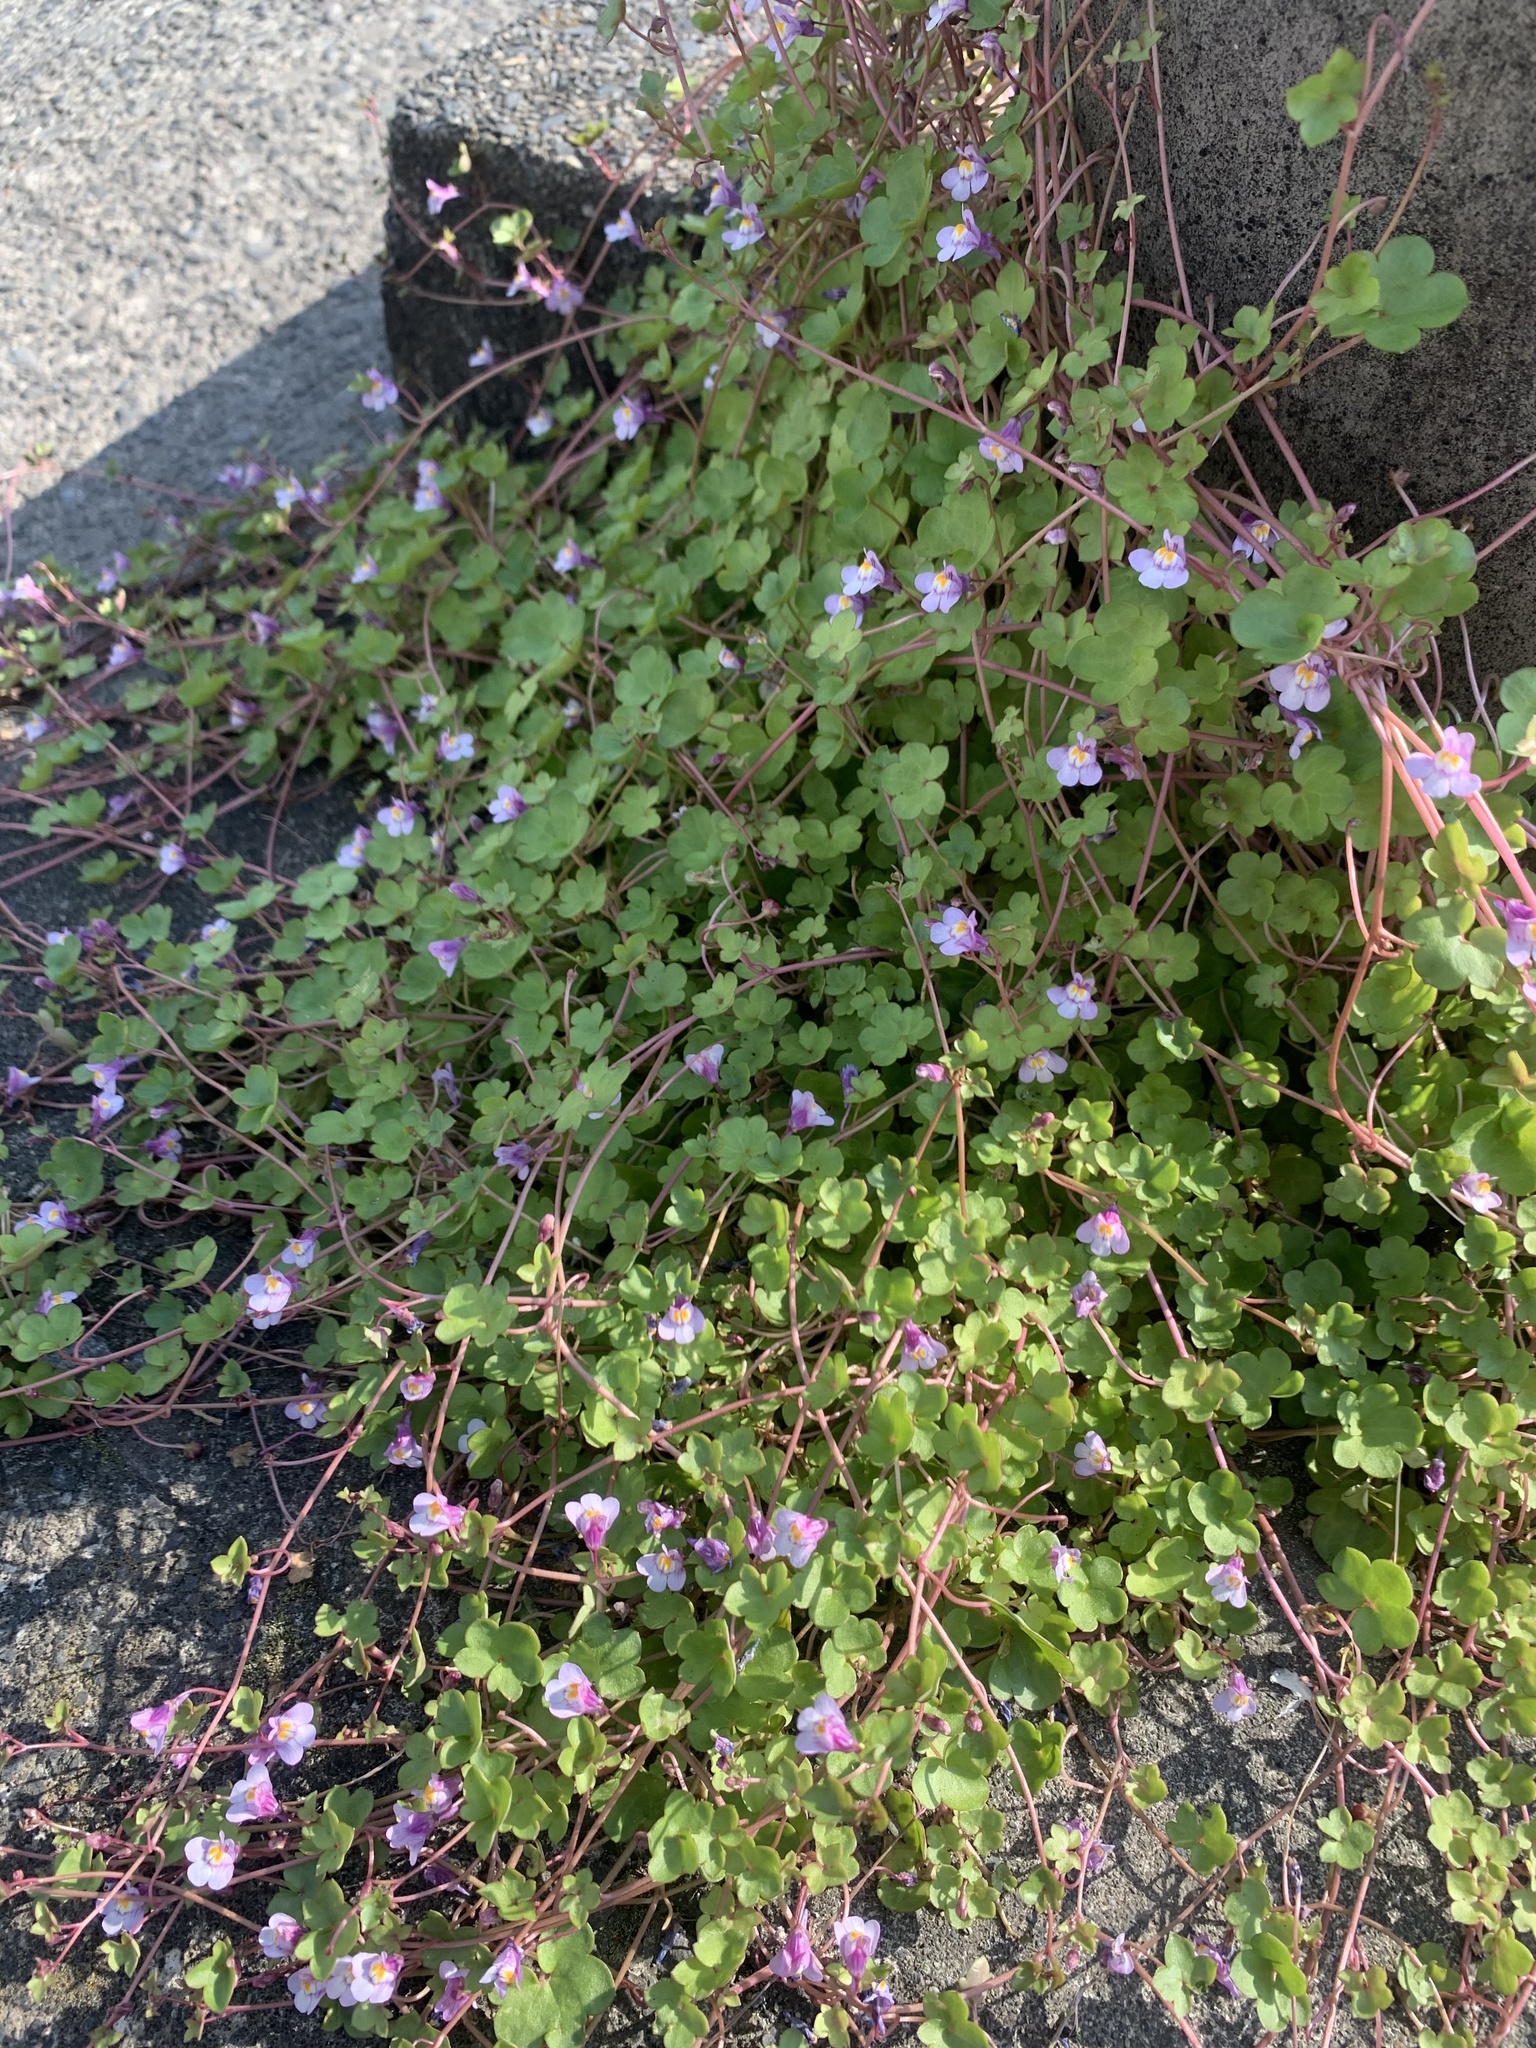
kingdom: Plantae
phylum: Tracheophyta
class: Magnoliopsida
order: Lamiales
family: Plantaginaceae
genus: Cymbalaria
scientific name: Cymbalaria muralis
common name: Ivy-leaved toadflax
